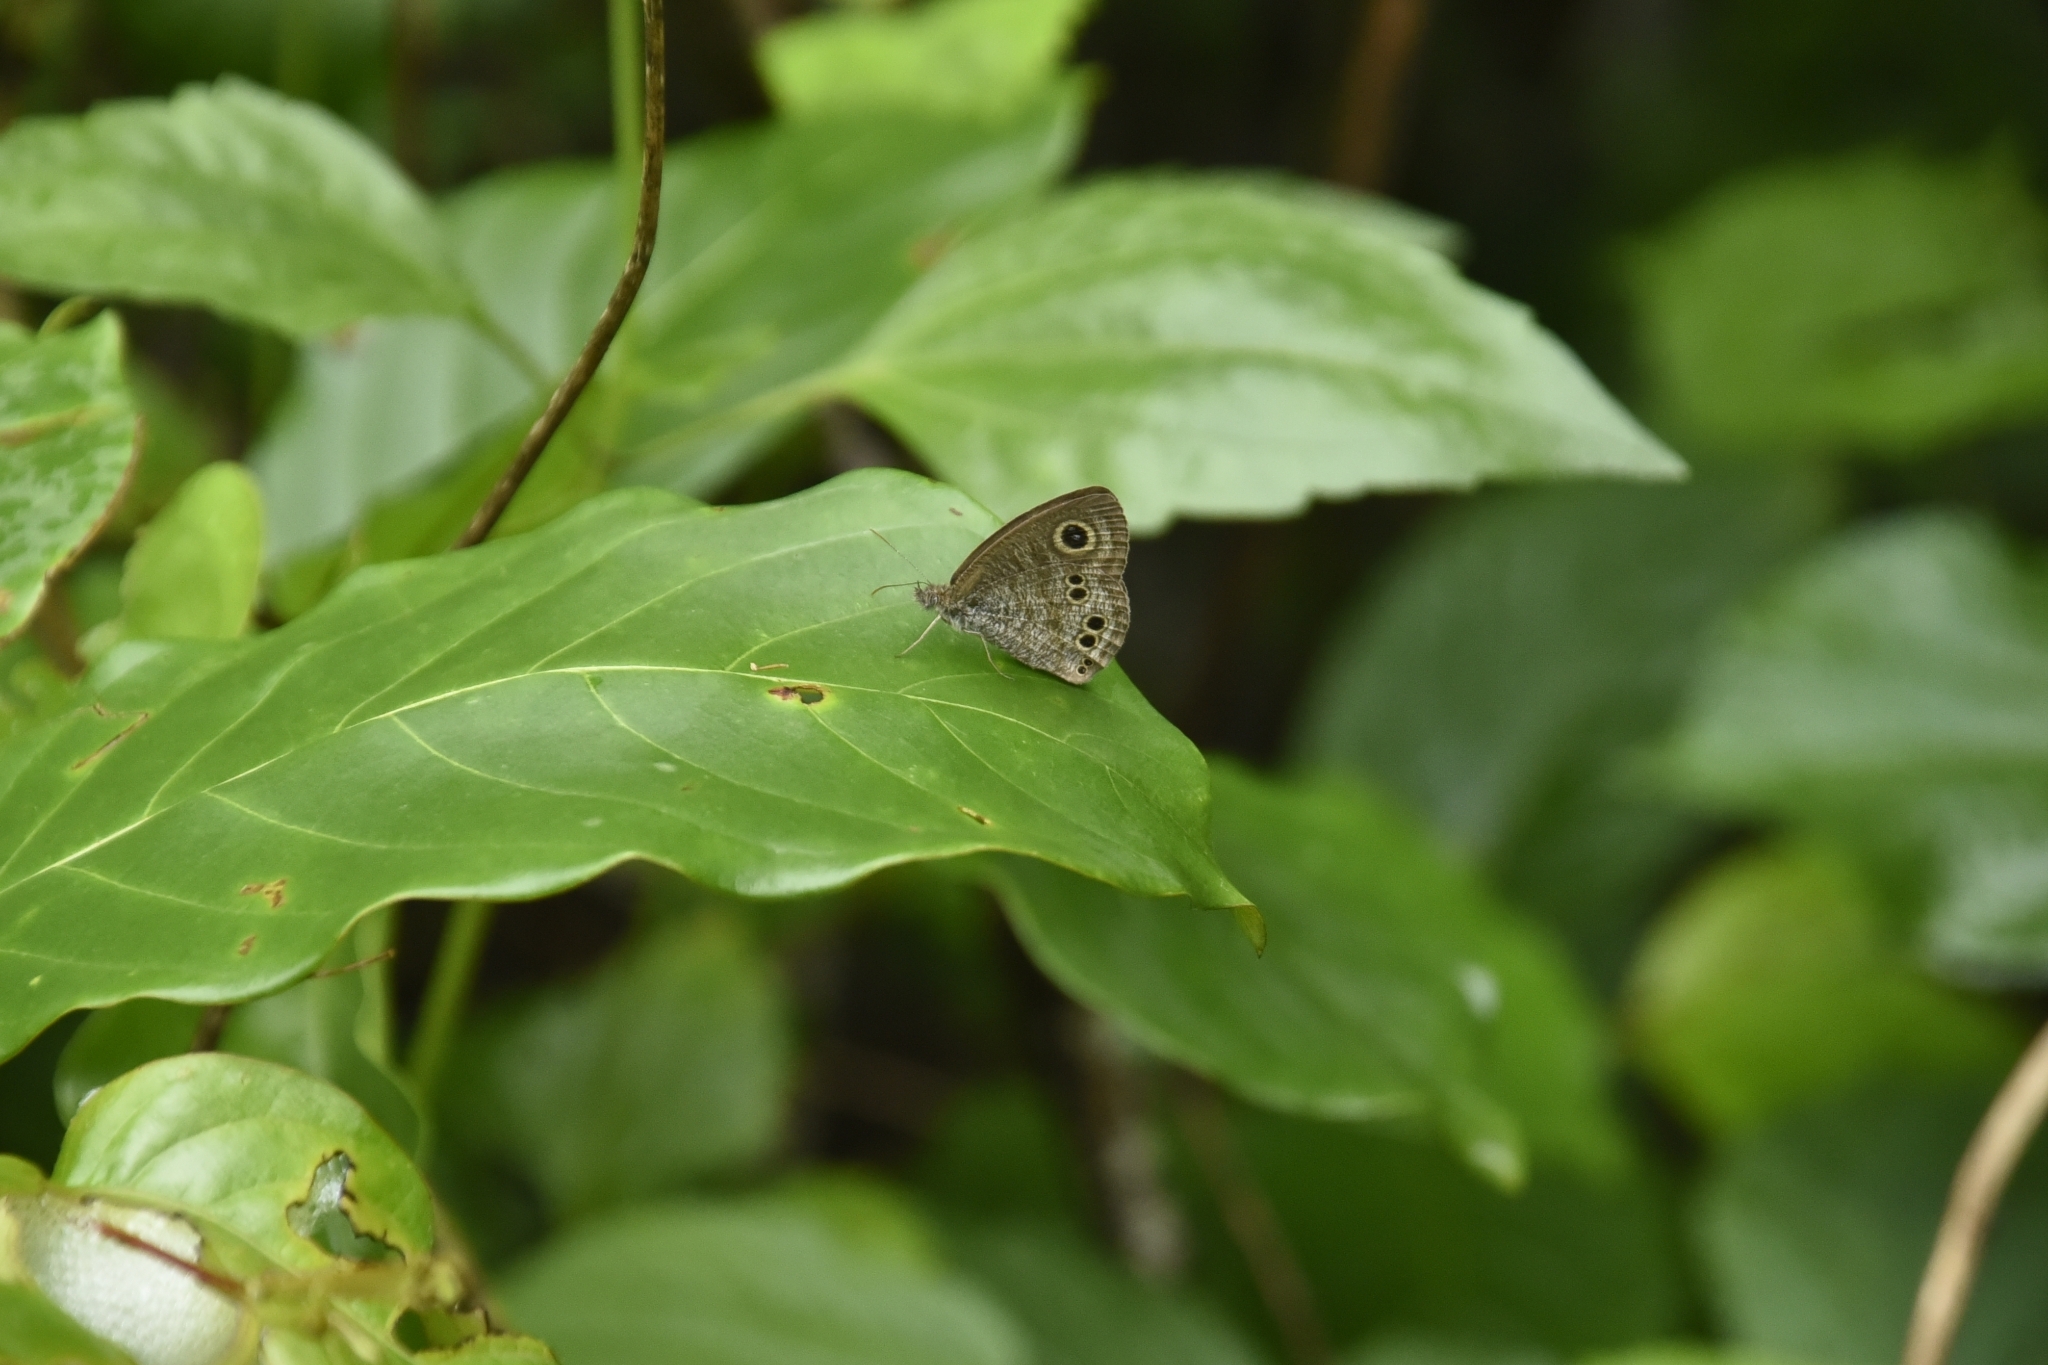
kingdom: Animalia
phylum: Arthropoda
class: Insecta
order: Lepidoptera
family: Nymphalidae
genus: Ypthima
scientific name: Ypthima baldus
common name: Common five-ring
